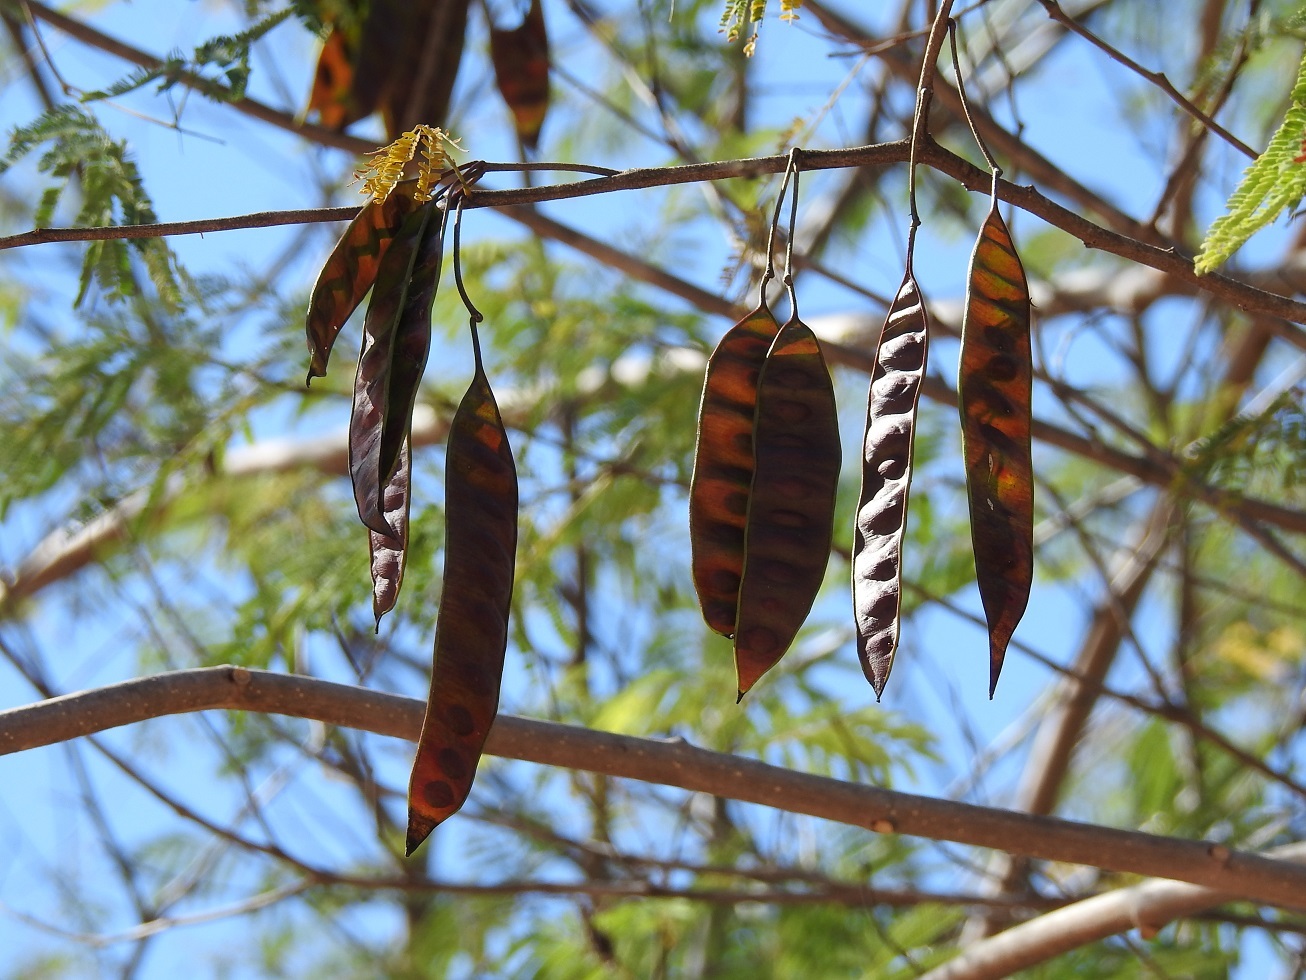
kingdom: Plantae
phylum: Tracheophyta
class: Magnoliopsida
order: Fabales
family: Fabaceae
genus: Leucaena
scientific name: Leucaena leucocephala
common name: White leadtree
